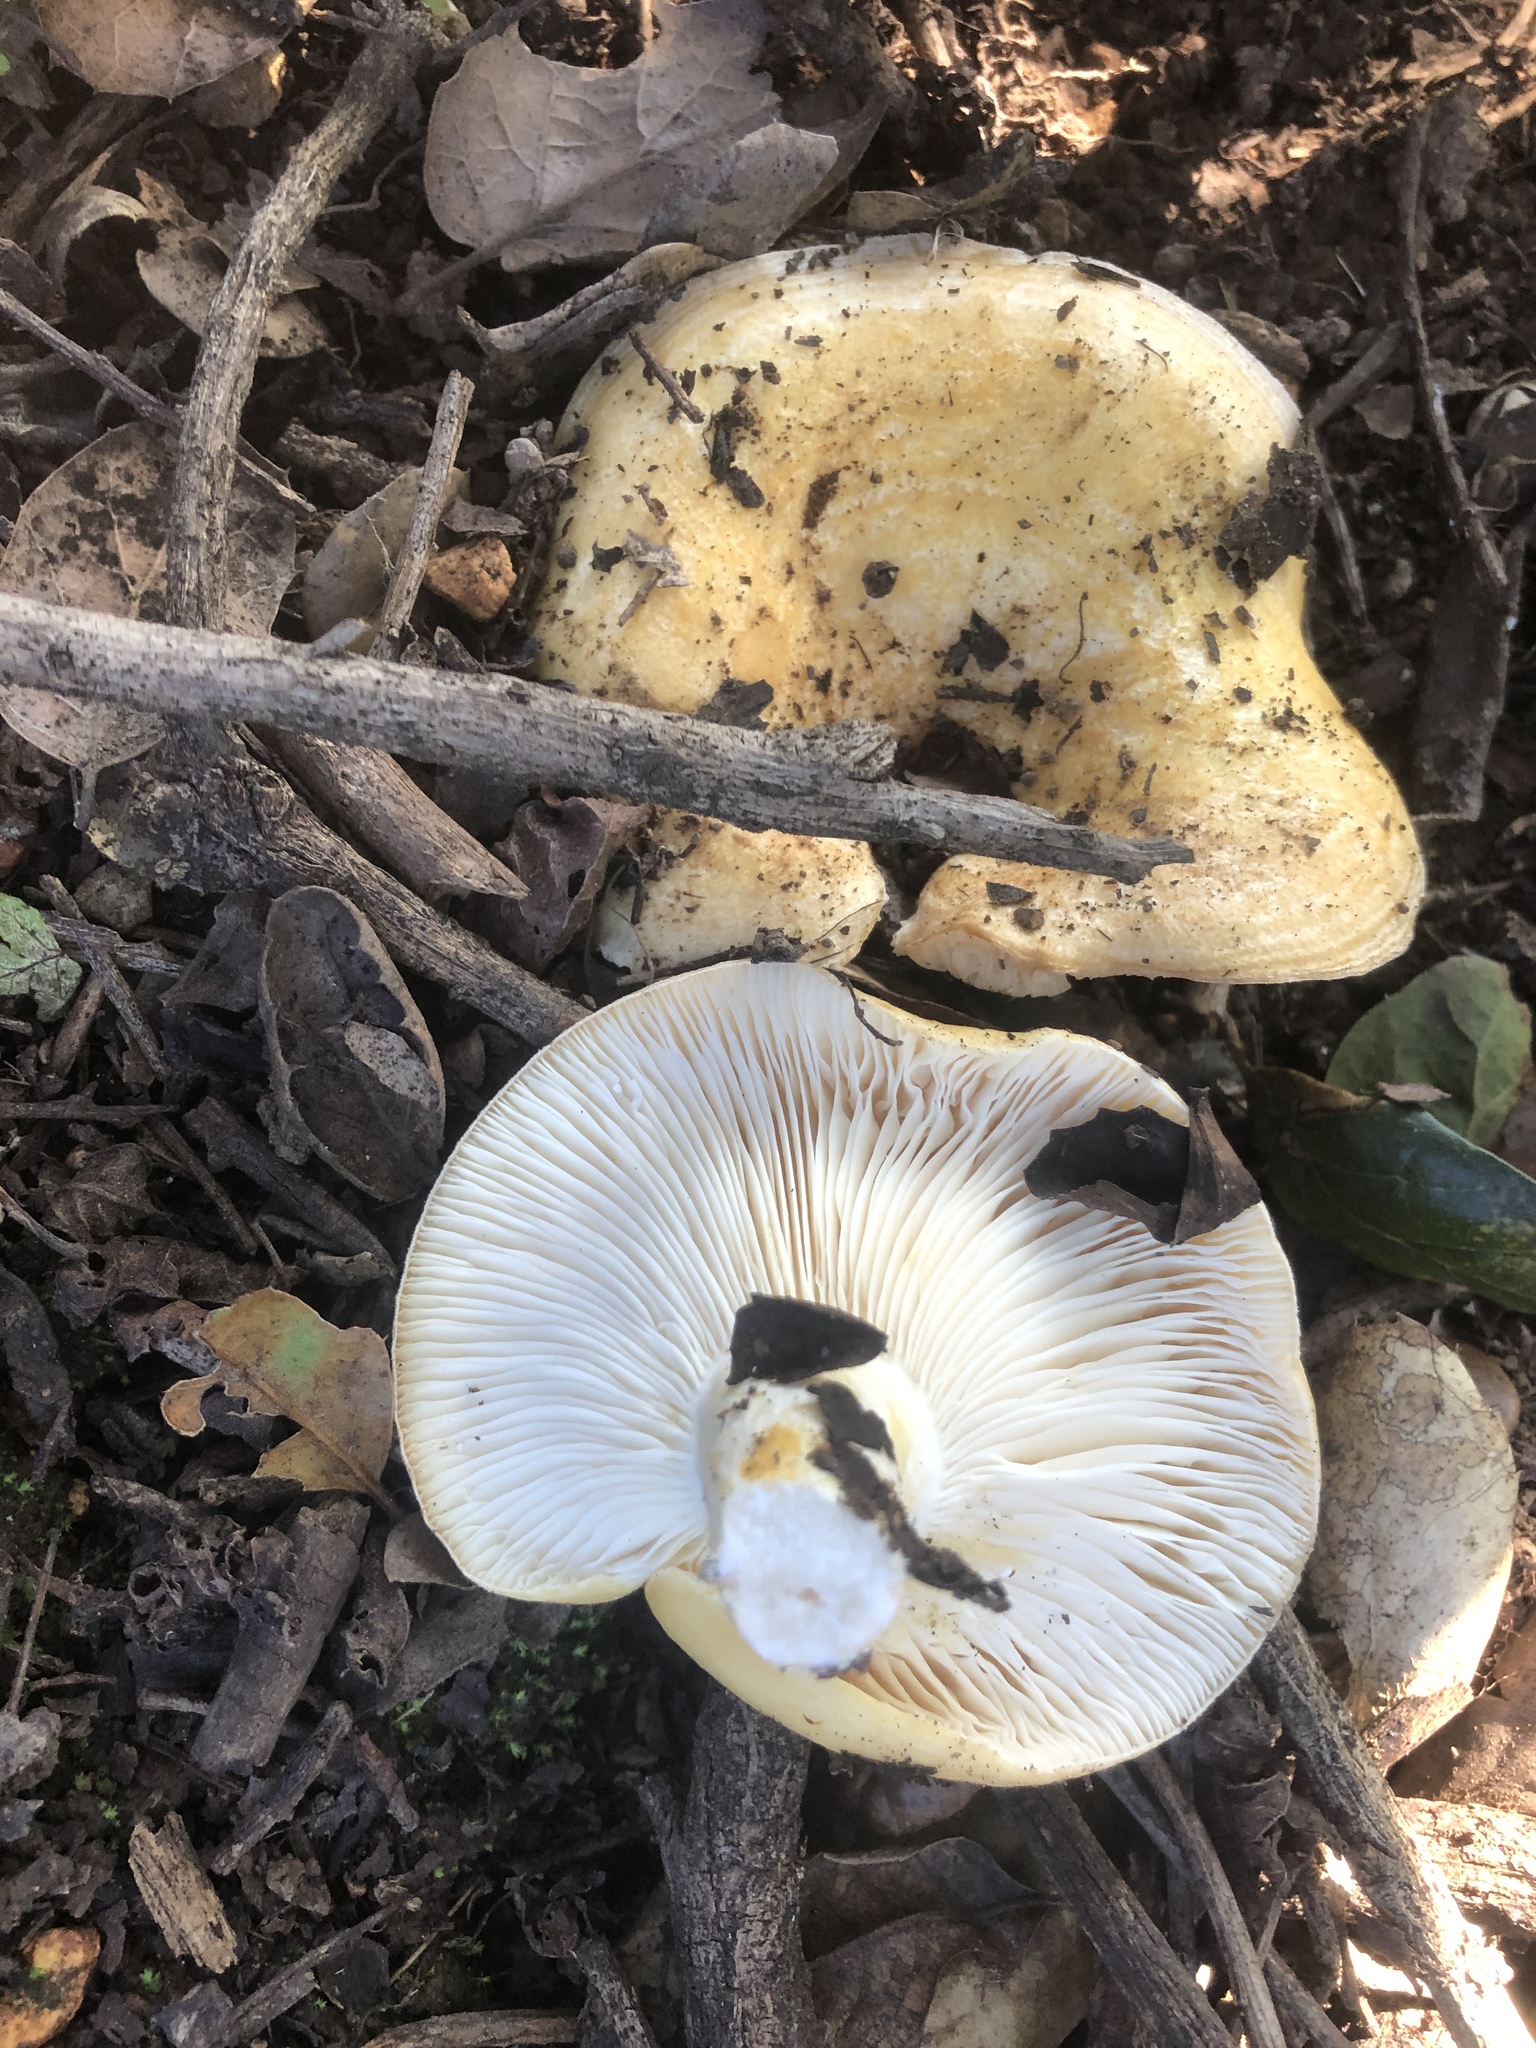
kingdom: Fungi
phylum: Basidiomycota
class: Agaricomycetes
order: Russulales
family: Russulaceae
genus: Lactarius
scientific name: Lactarius alnicola
